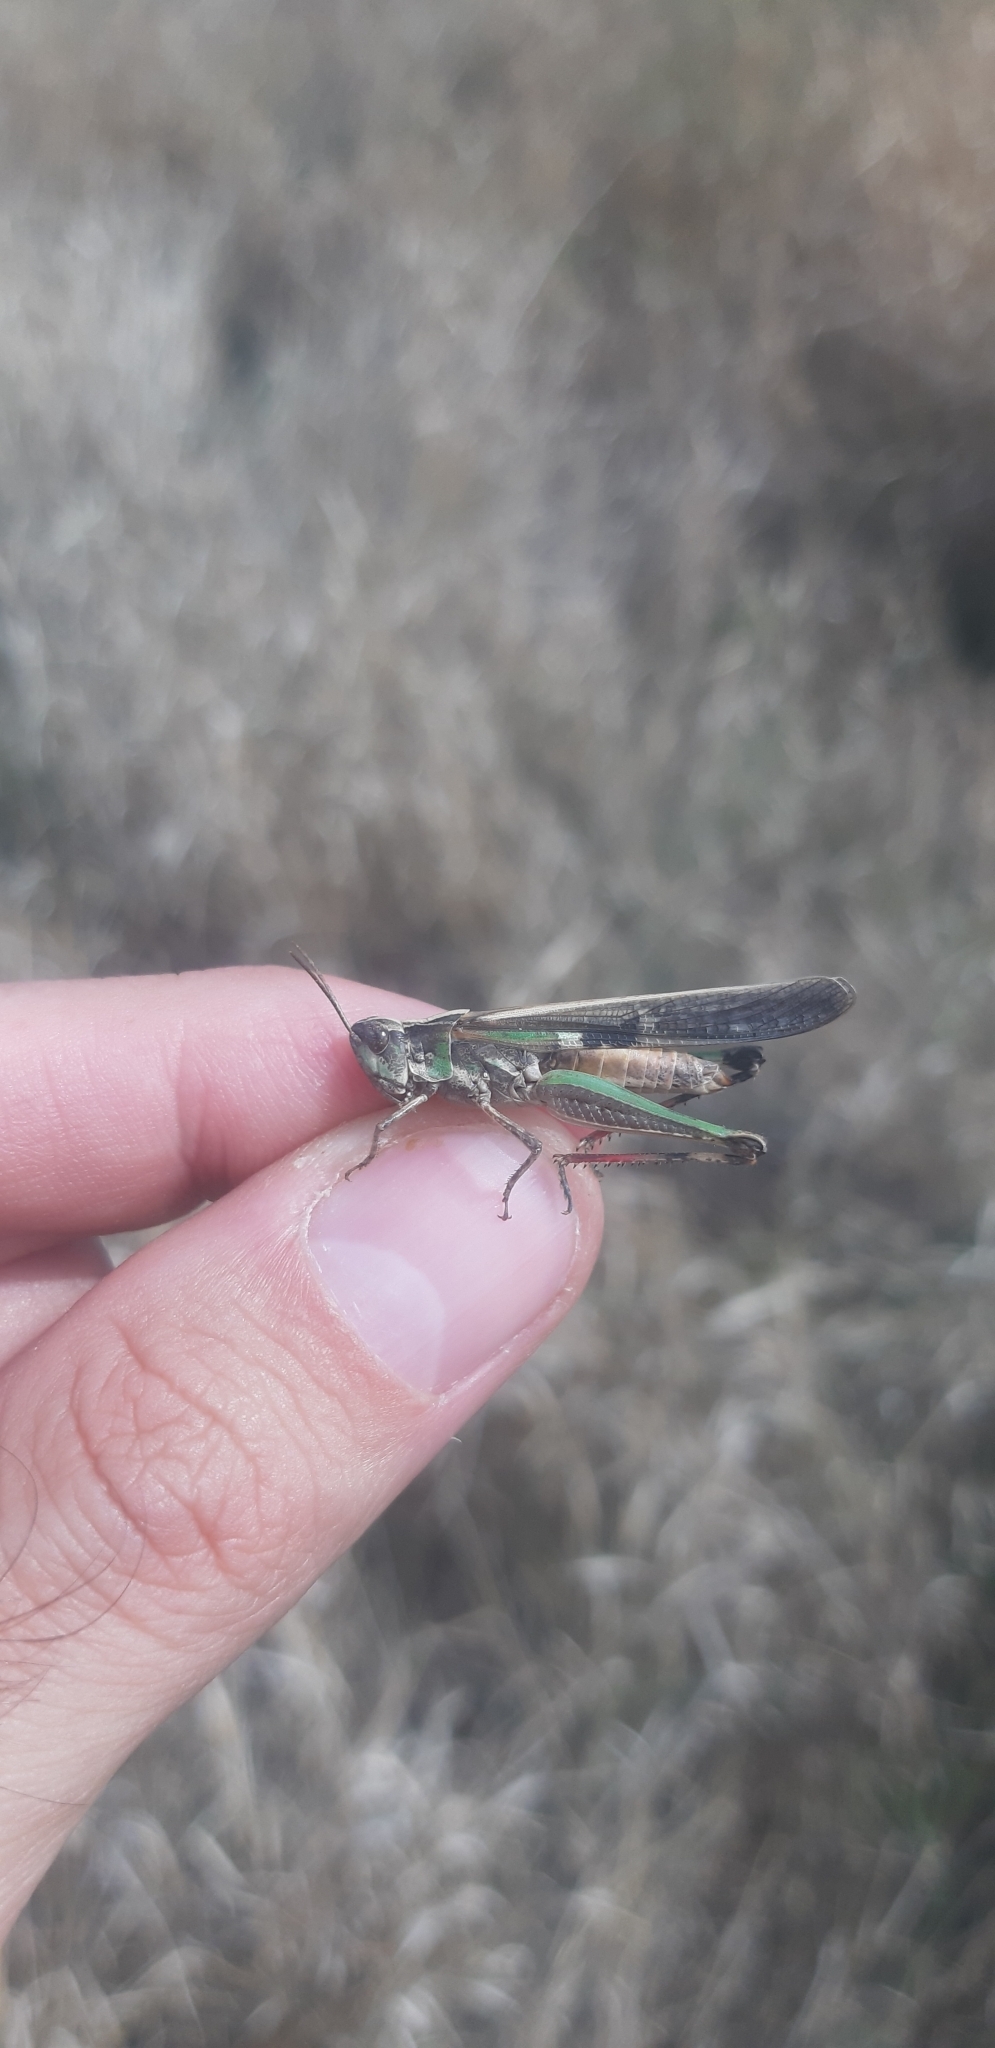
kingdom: Animalia
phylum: Arthropoda
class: Insecta
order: Orthoptera
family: Acrididae
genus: Aiolopus
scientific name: Aiolopus thalassinus
